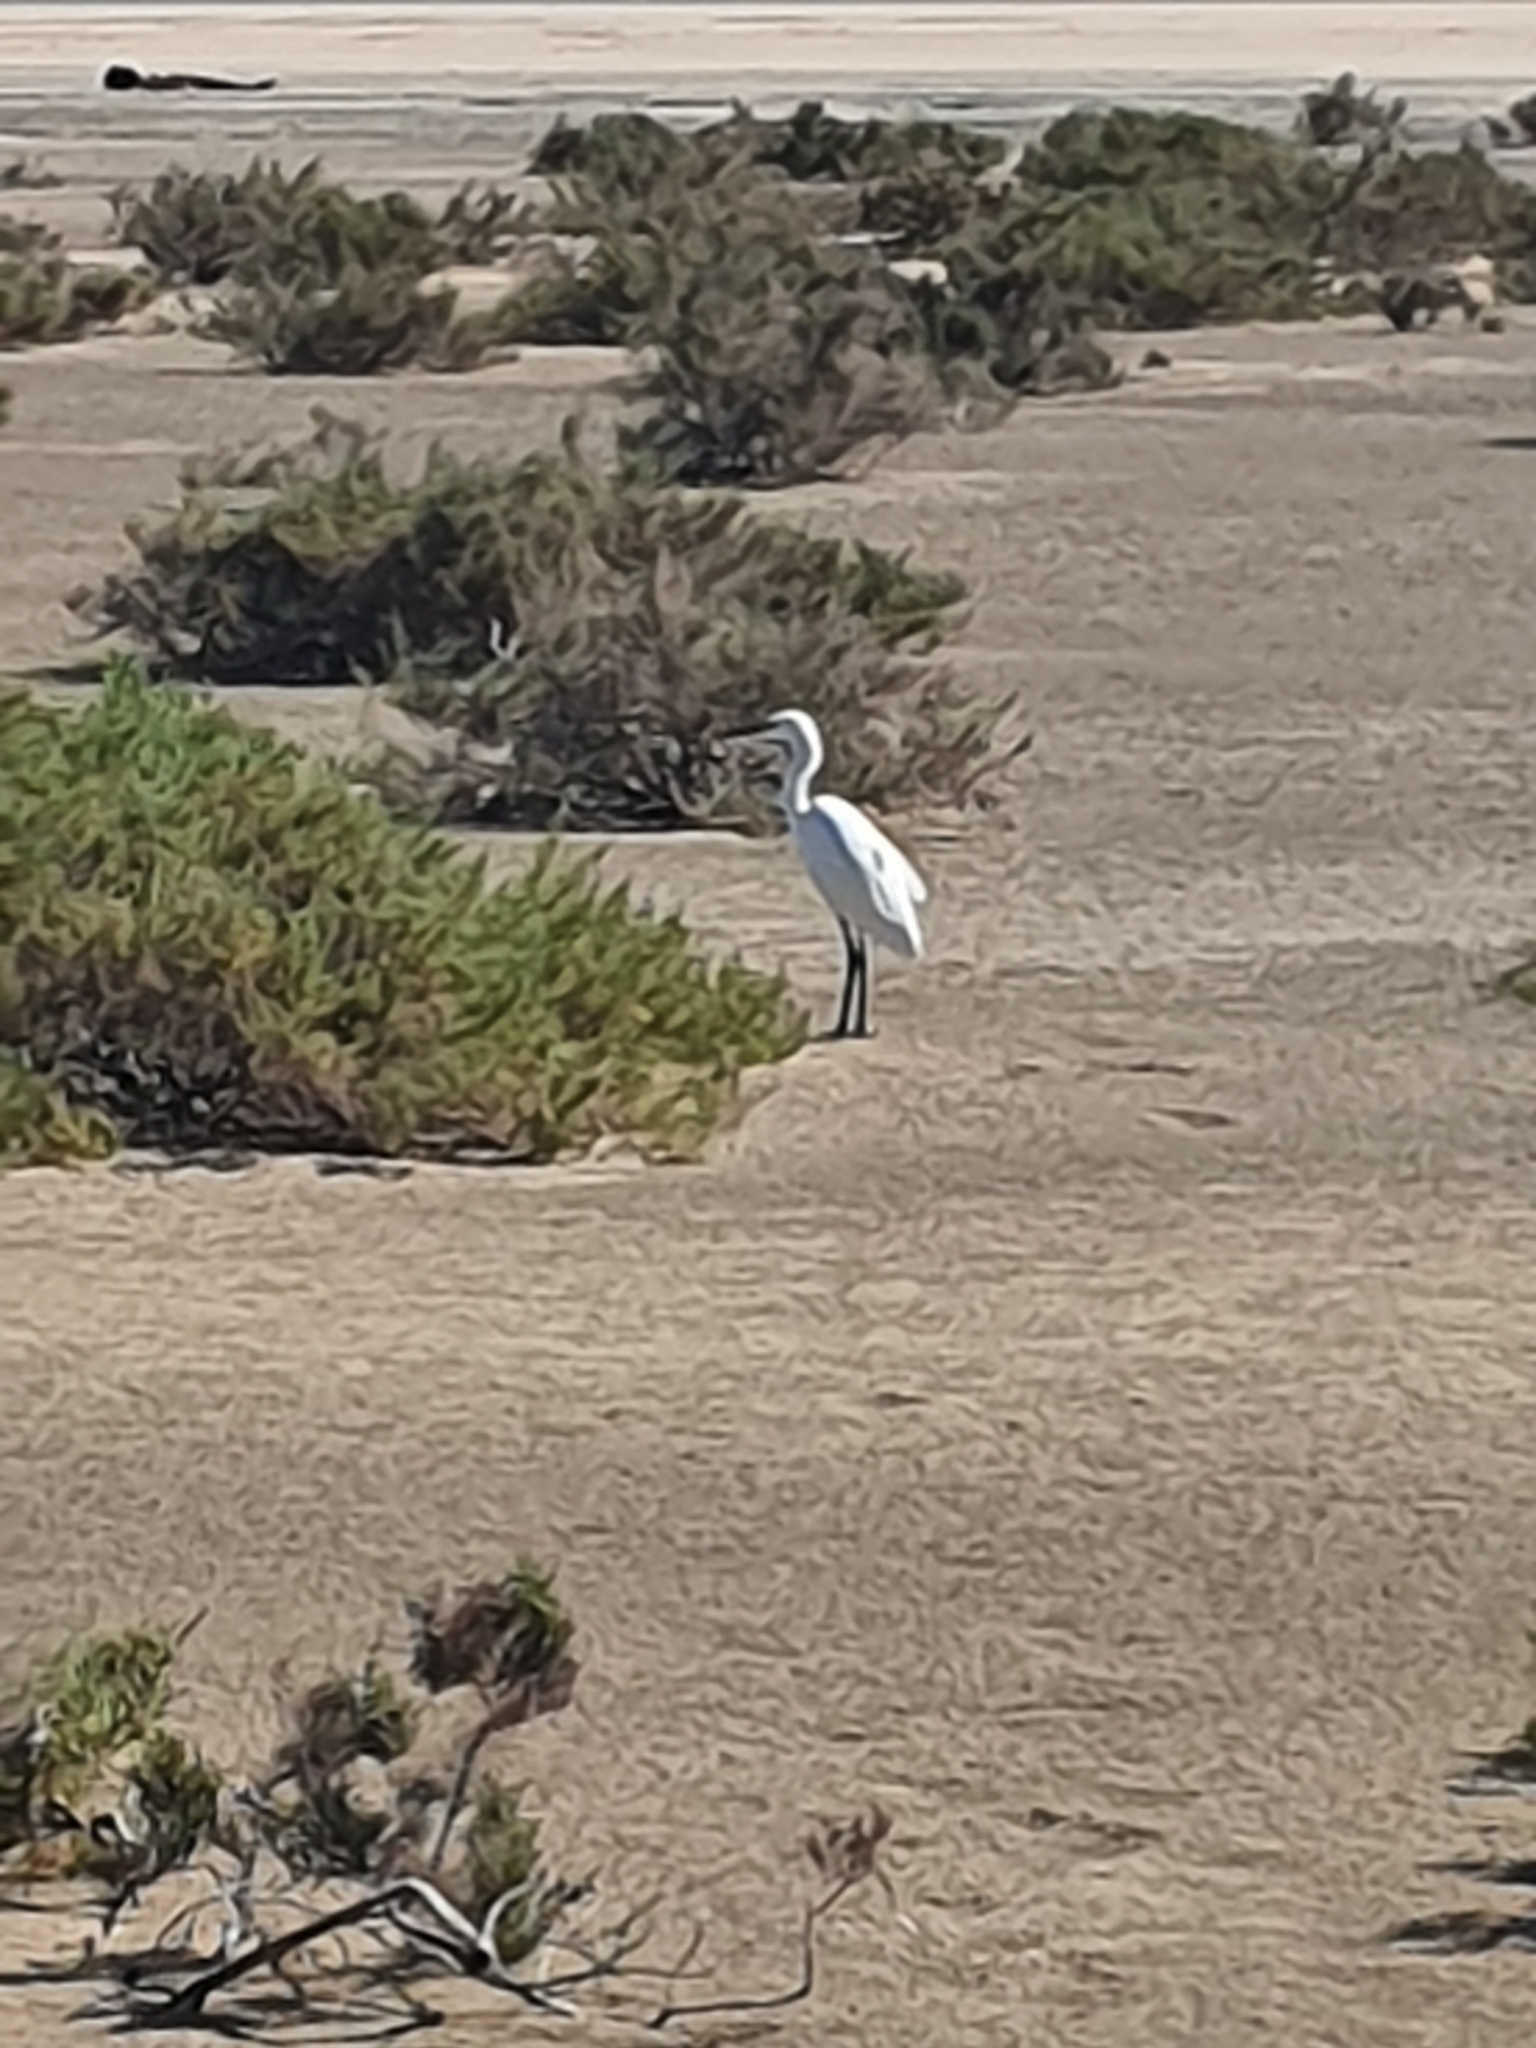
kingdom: Animalia
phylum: Chordata
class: Aves
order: Pelecaniformes
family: Ardeidae
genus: Egretta
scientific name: Egretta garzetta
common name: Little egret
